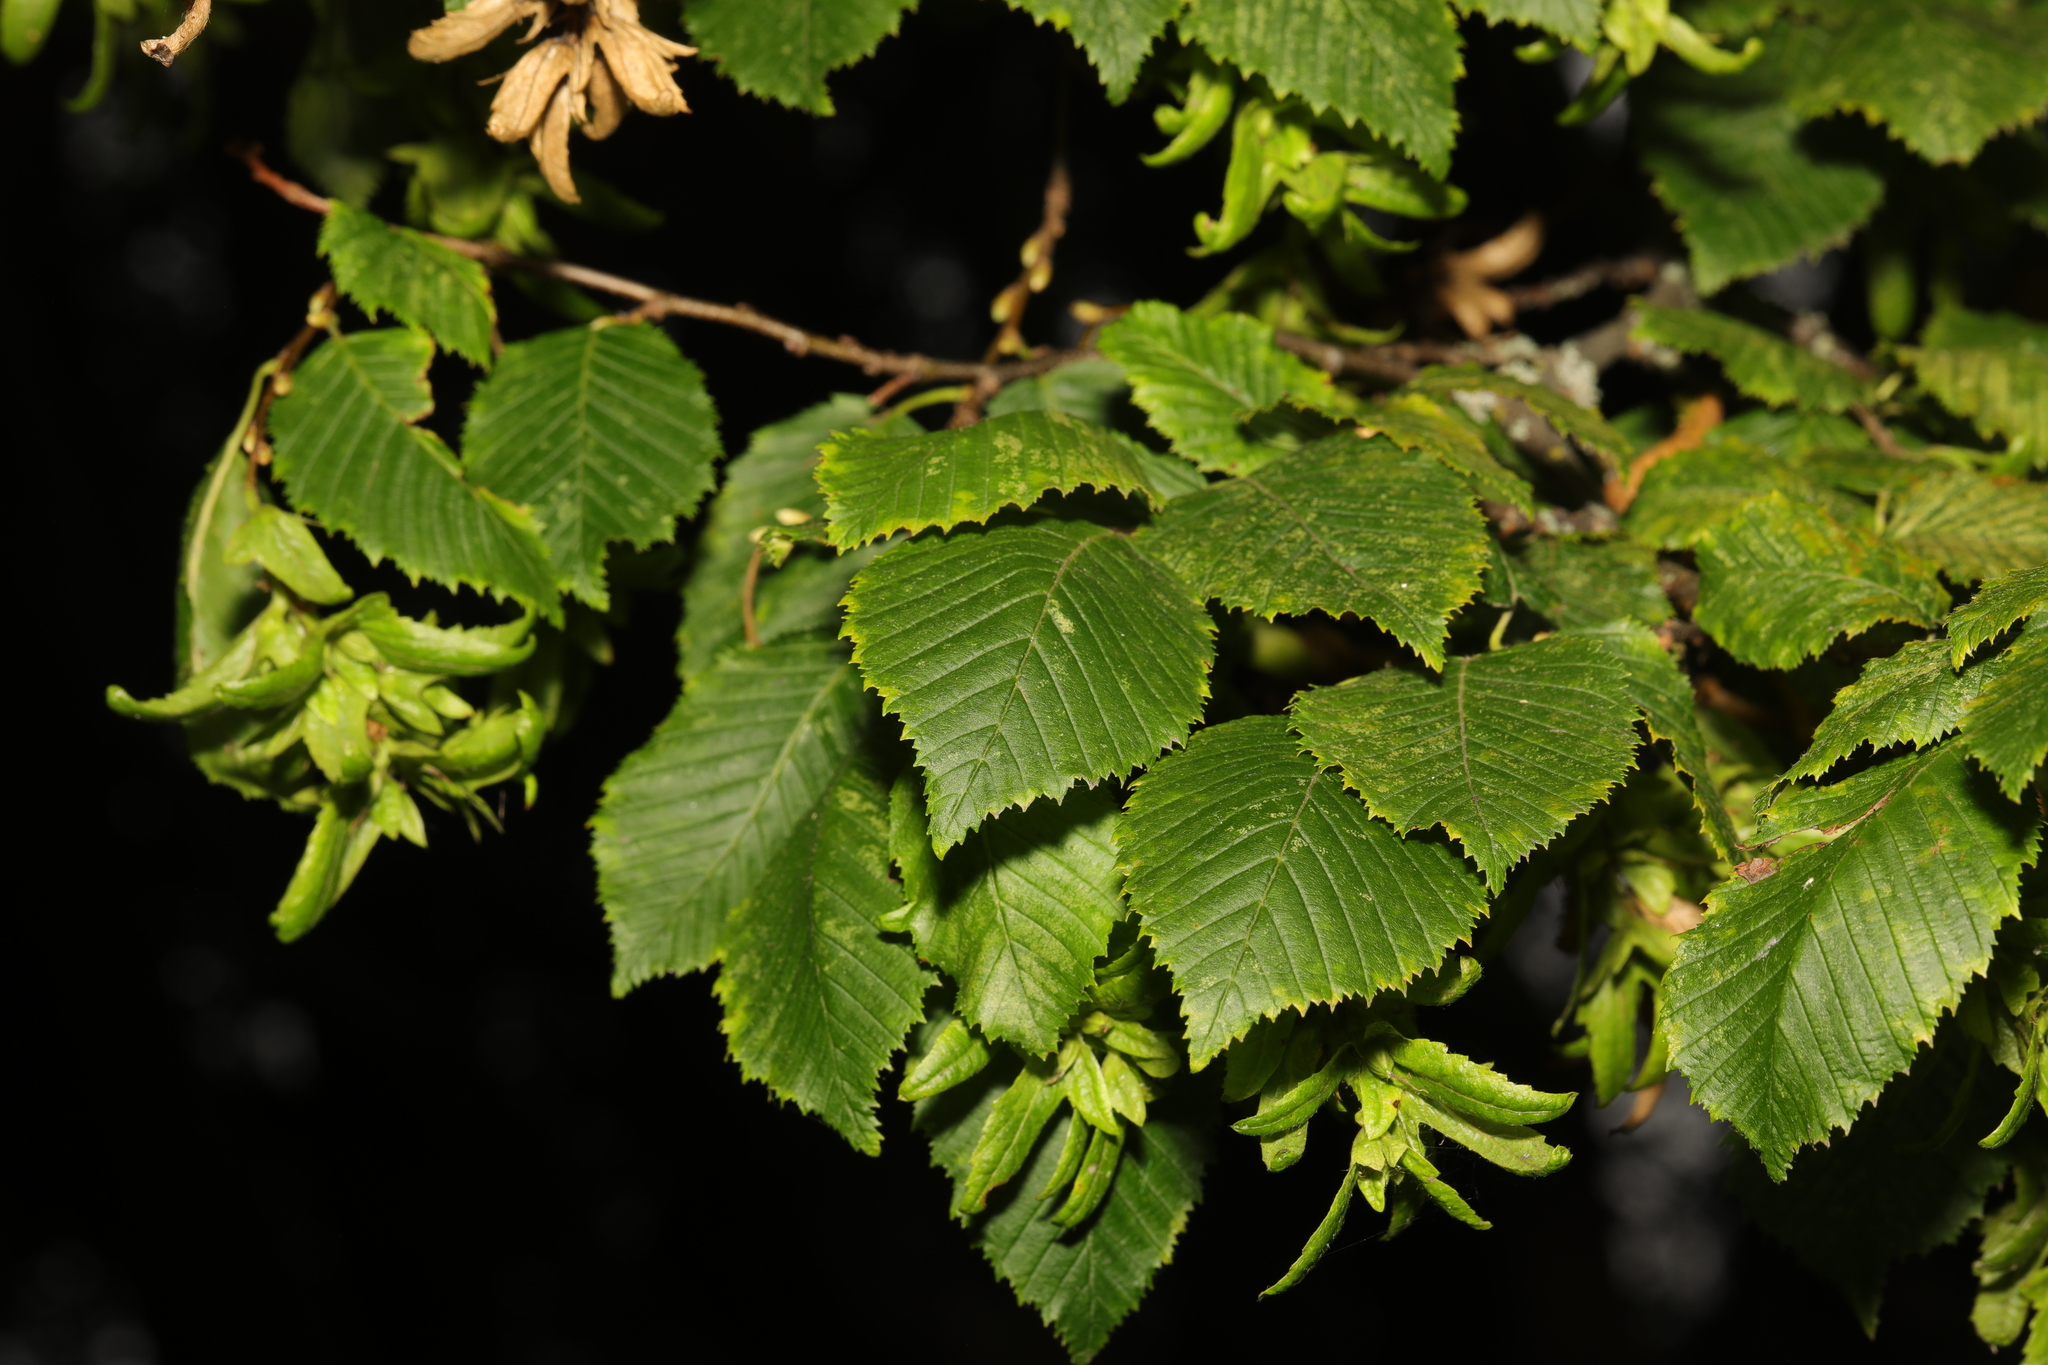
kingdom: Plantae
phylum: Tracheophyta
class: Magnoliopsida
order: Fagales
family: Betulaceae
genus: Carpinus
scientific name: Carpinus betulus
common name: Hornbeam
